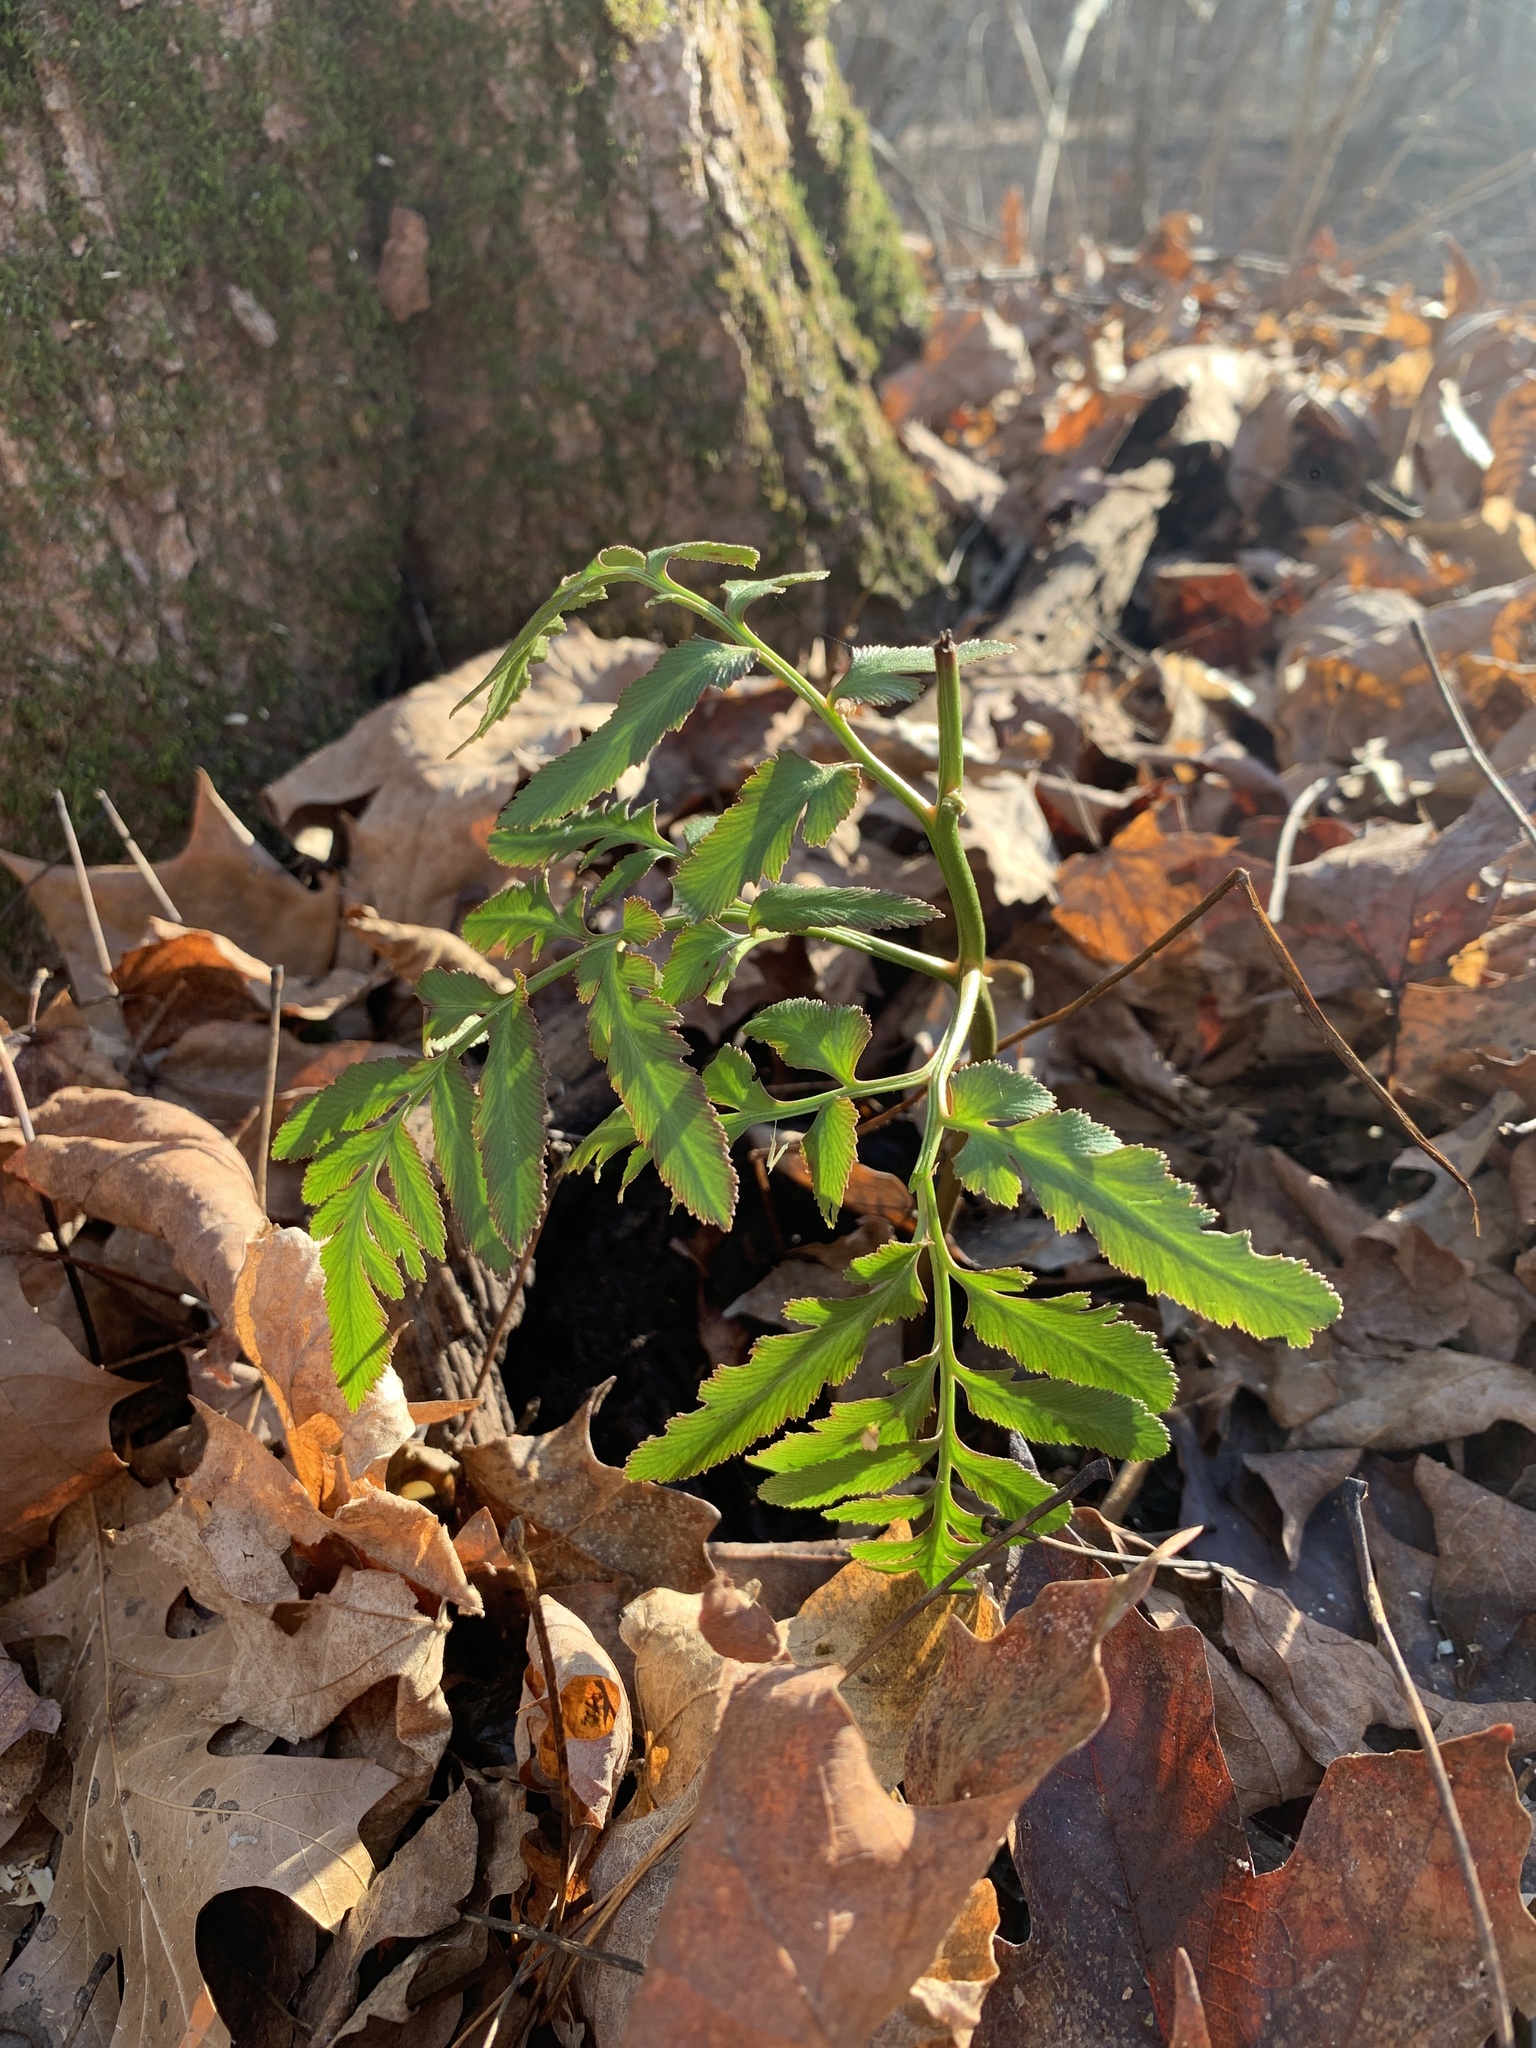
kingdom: Plantae
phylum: Tracheophyta
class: Polypodiopsida
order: Ophioglossales
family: Ophioglossaceae
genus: Sceptridium
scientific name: Sceptridium dissectum
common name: Cut-leaved grapefern
